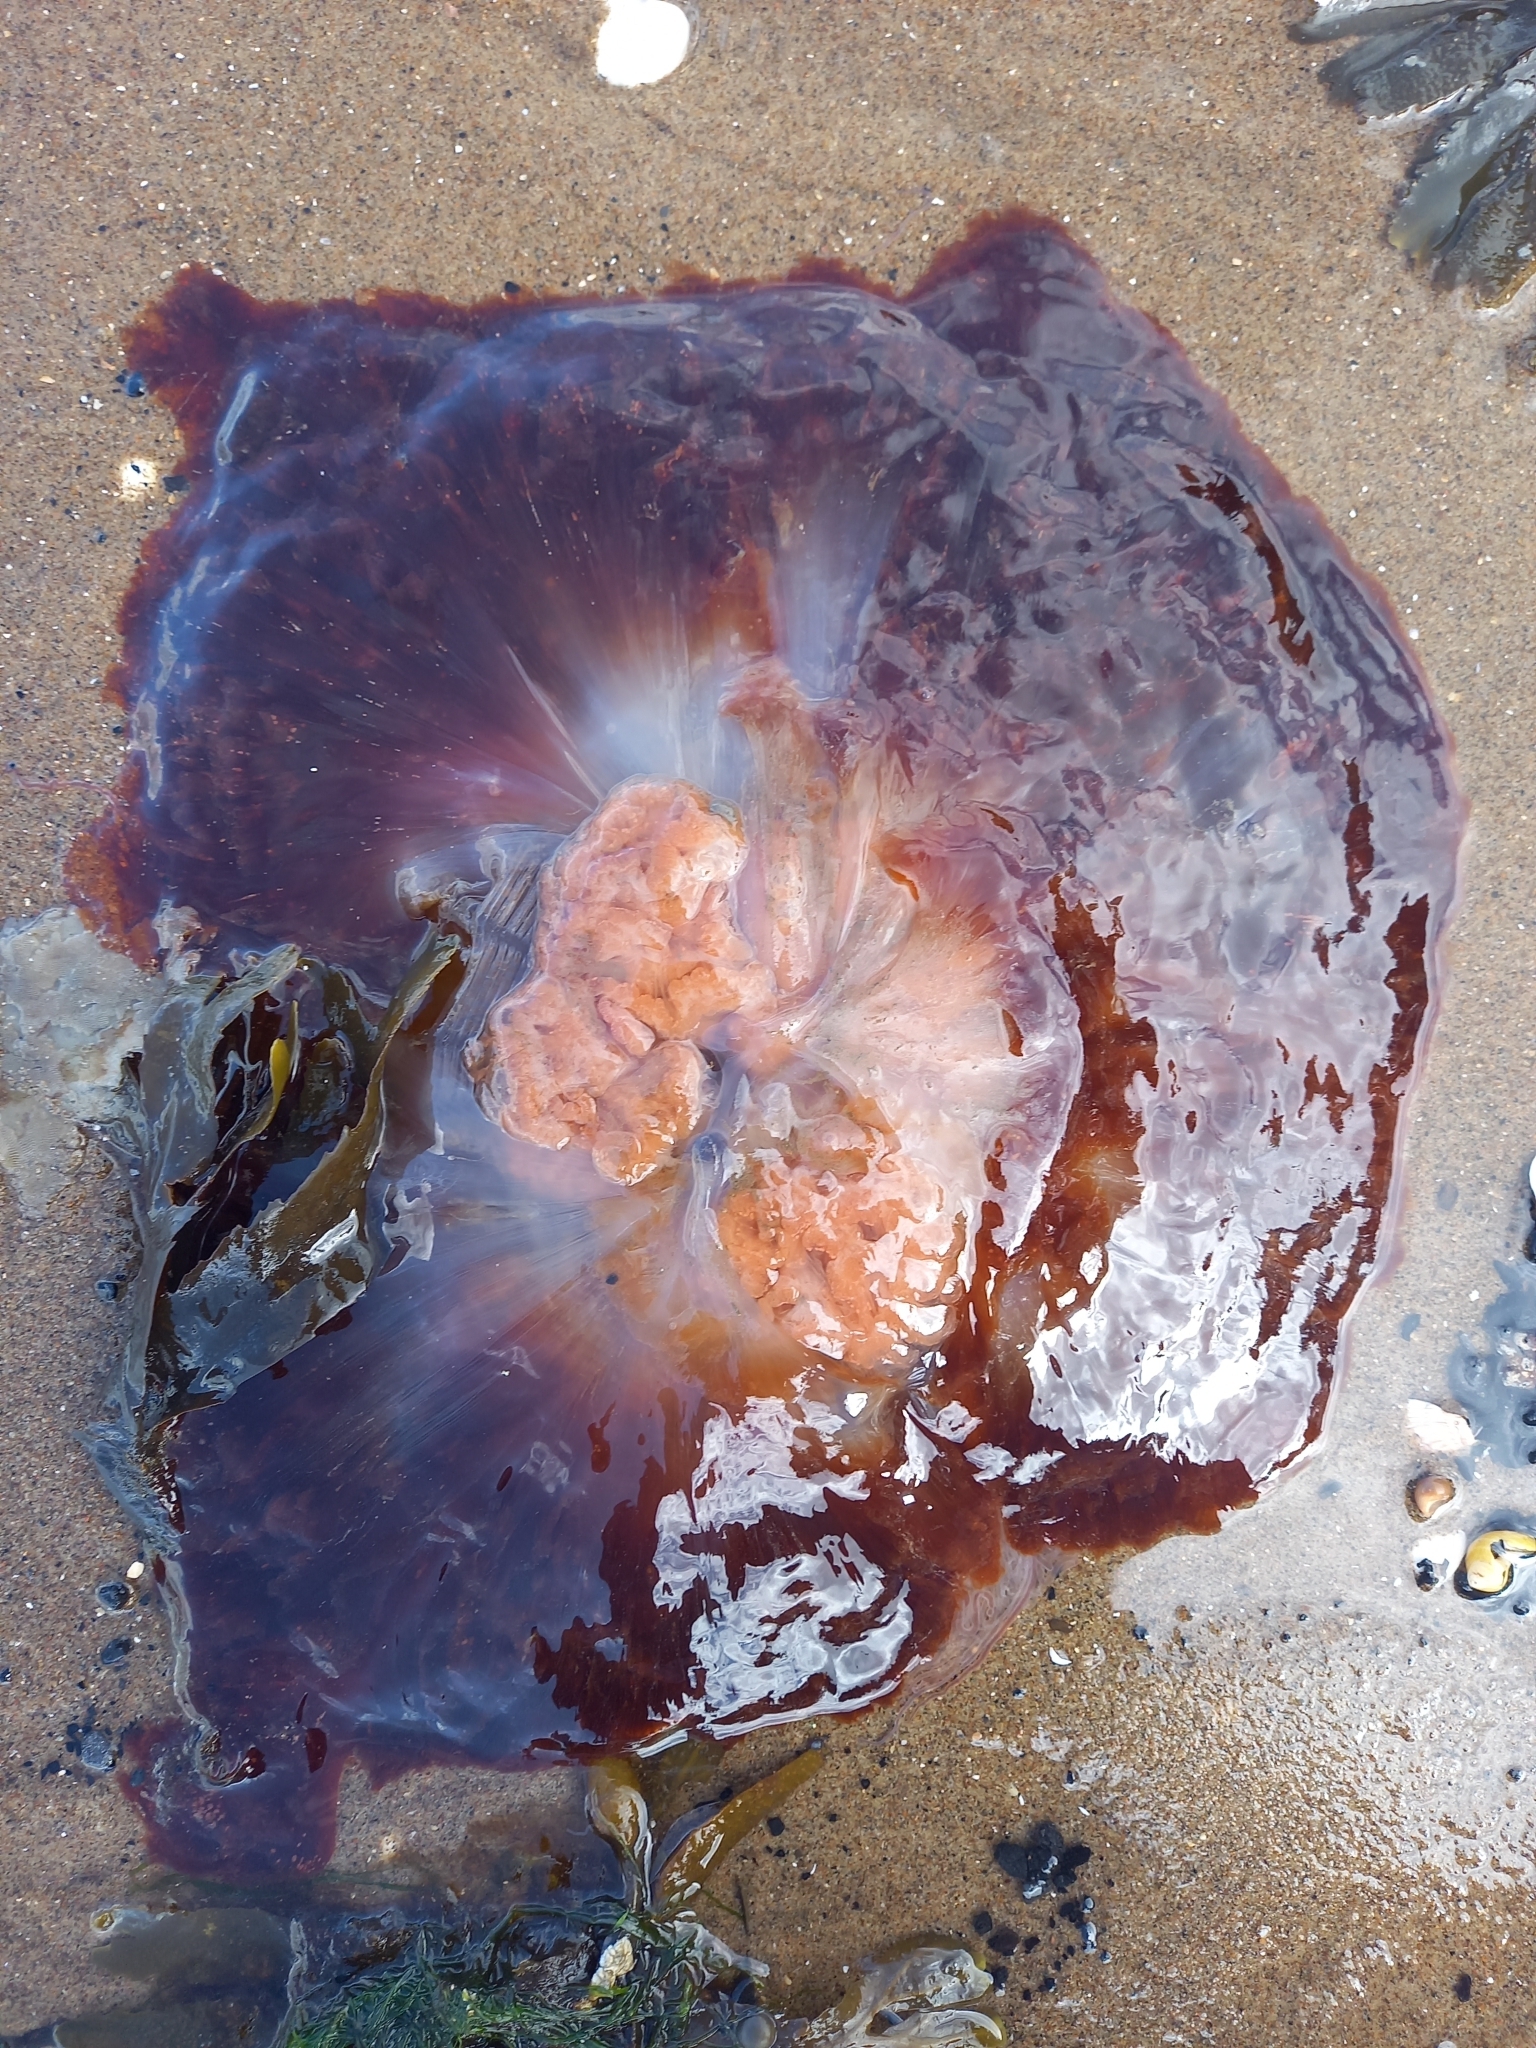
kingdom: Animalia
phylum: Cnidaria
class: Scyphozoa
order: Semaeostomeae
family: Cyaneidae
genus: Cyanea
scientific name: Cyanea capillata
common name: Lion's mane jellyfish
